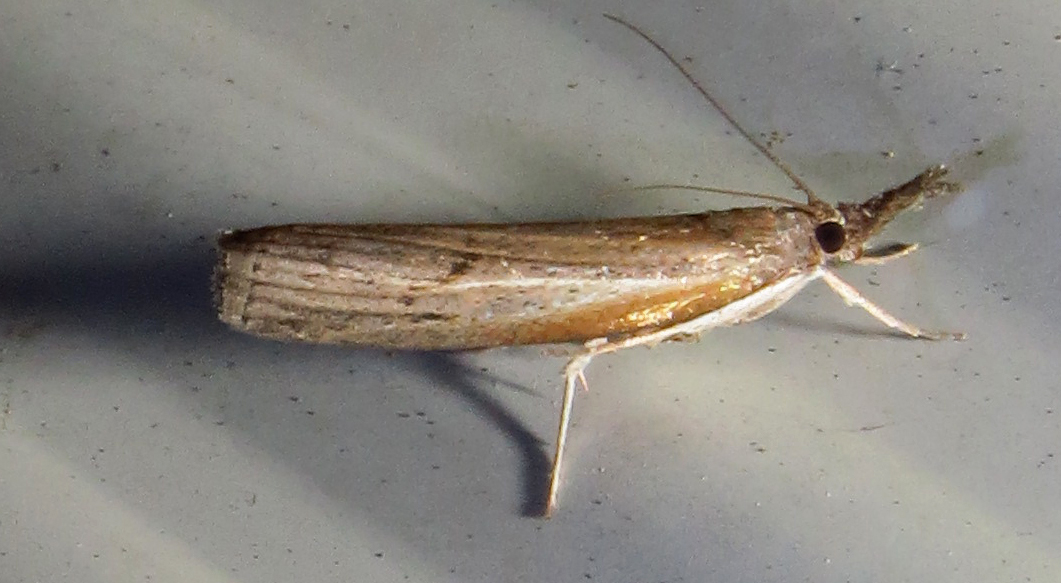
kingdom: Animalia
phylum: Arthropoda
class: Insecta
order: Lepidoptera
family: Crambidae
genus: Parapediasia
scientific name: Parapediasia teterellus
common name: Bluegrass webworm moth
